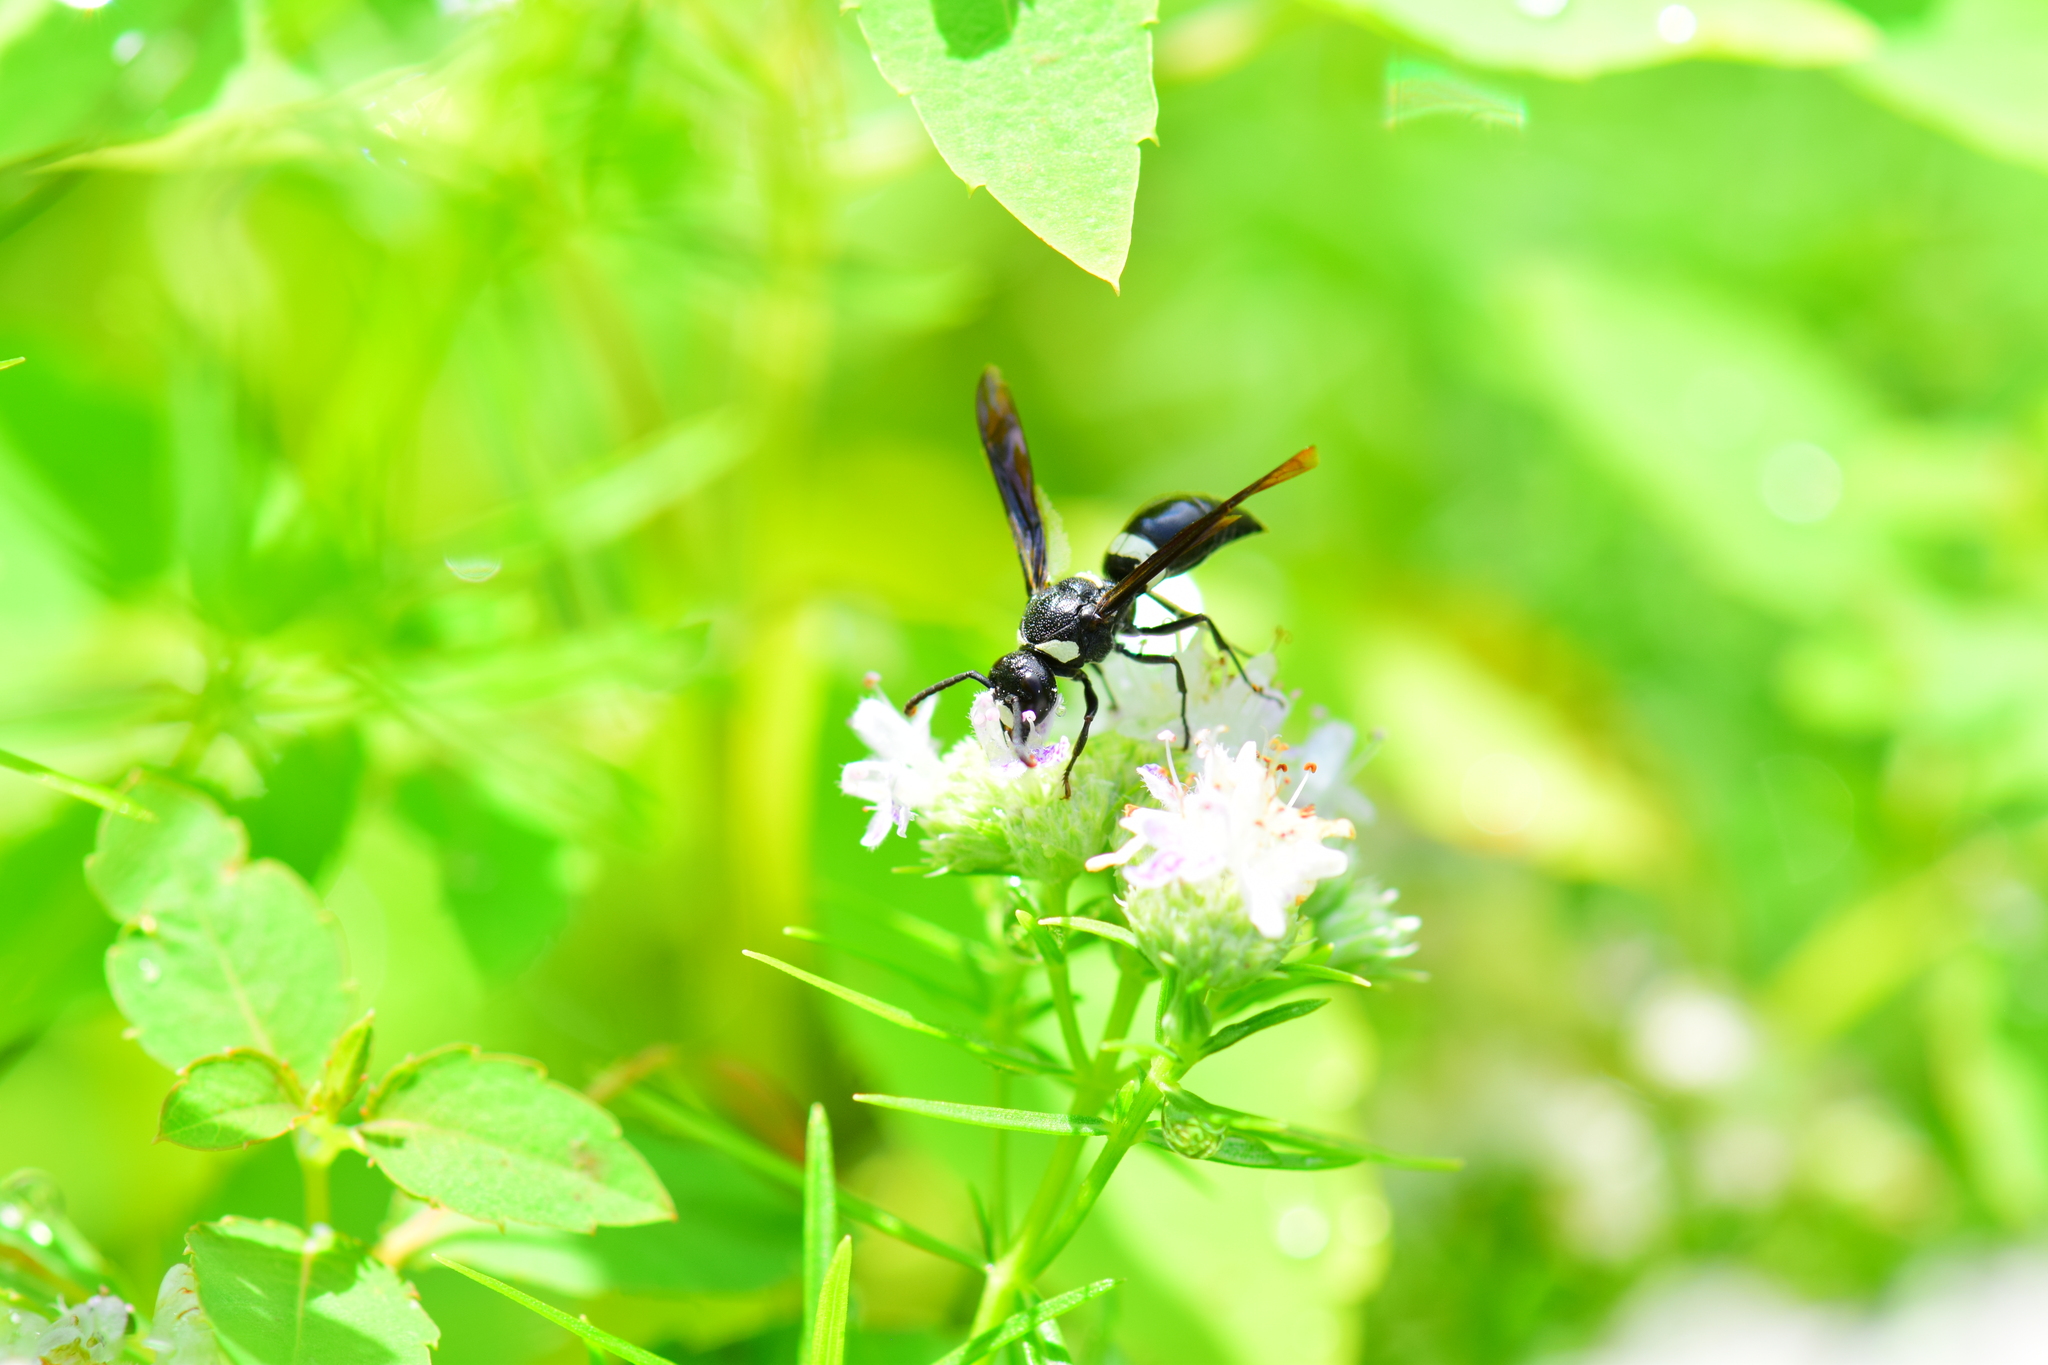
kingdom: Animalia
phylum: Arthropoda
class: Insecta
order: Hymenoptera
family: Eumenidae
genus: Monobia
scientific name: Monobia quadridens
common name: Four-toothed mason wasp
